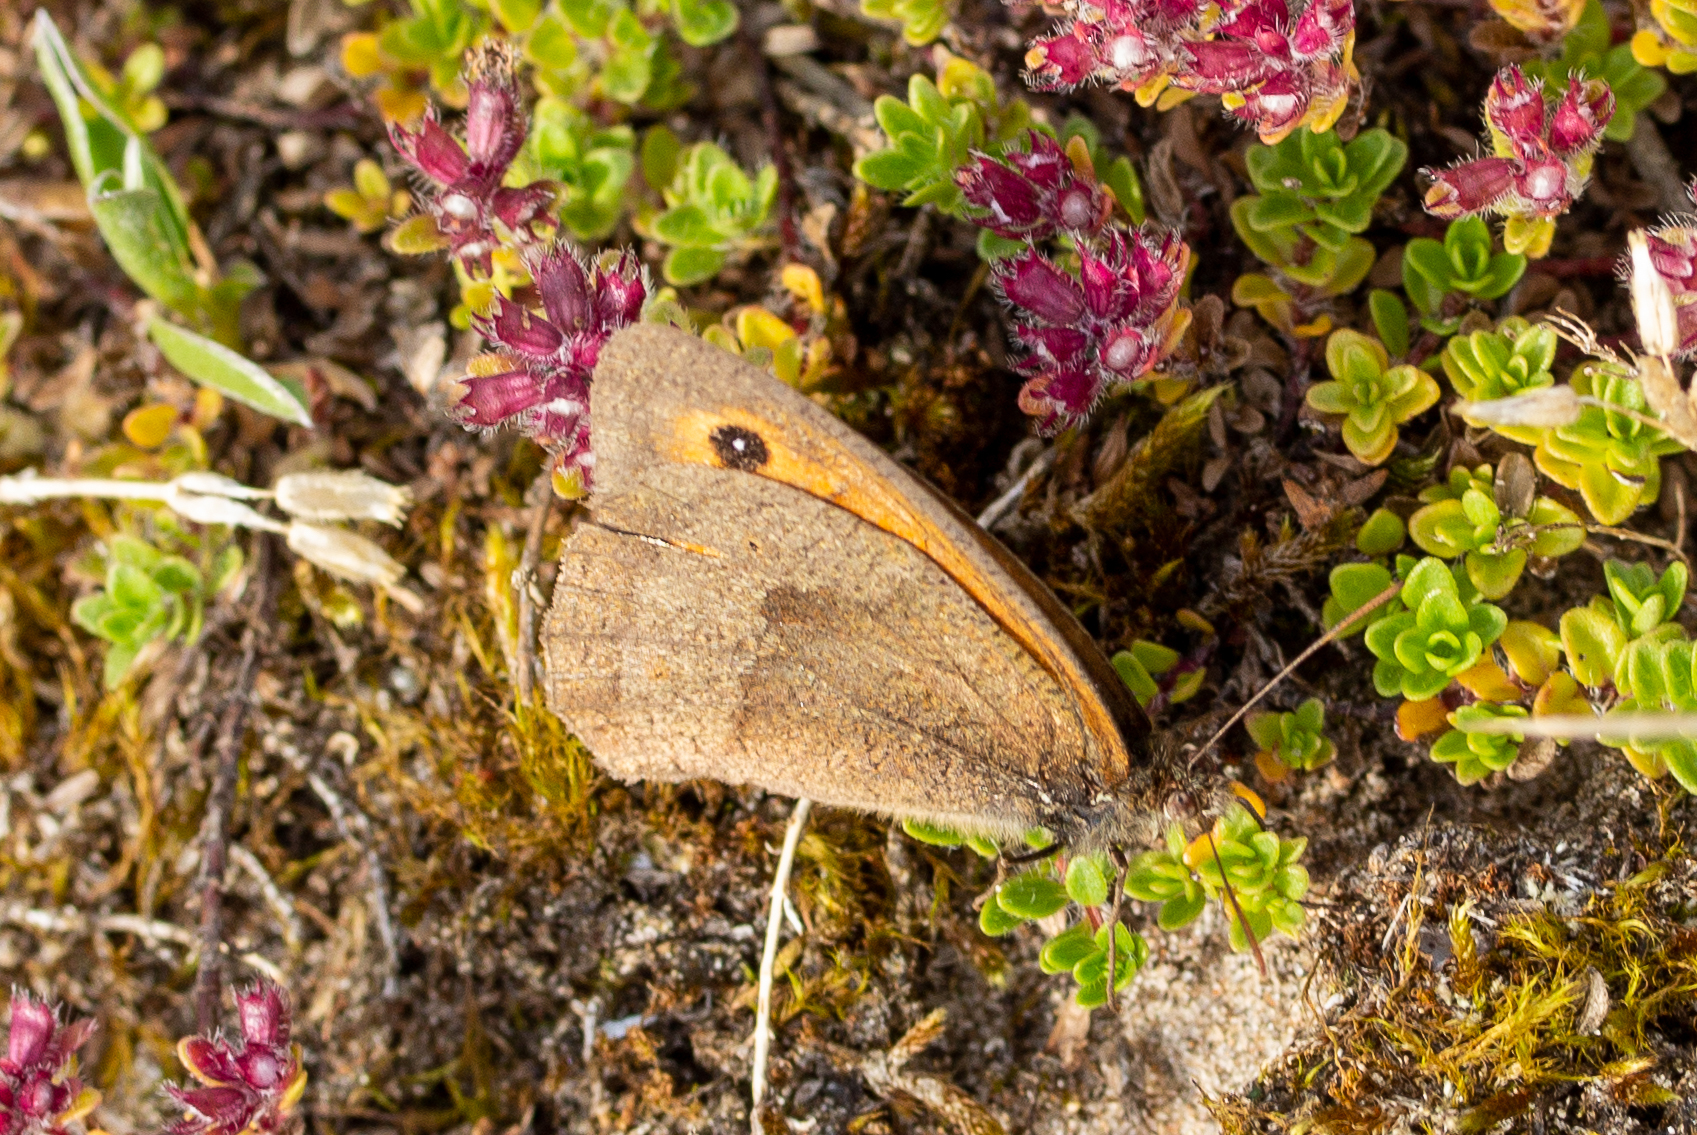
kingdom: Animalia
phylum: Arthropoda
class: Insecta
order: Lepidoptera
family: Nymphalidae
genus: Maniola
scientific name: Maniola jurtina
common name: Meadow brown
